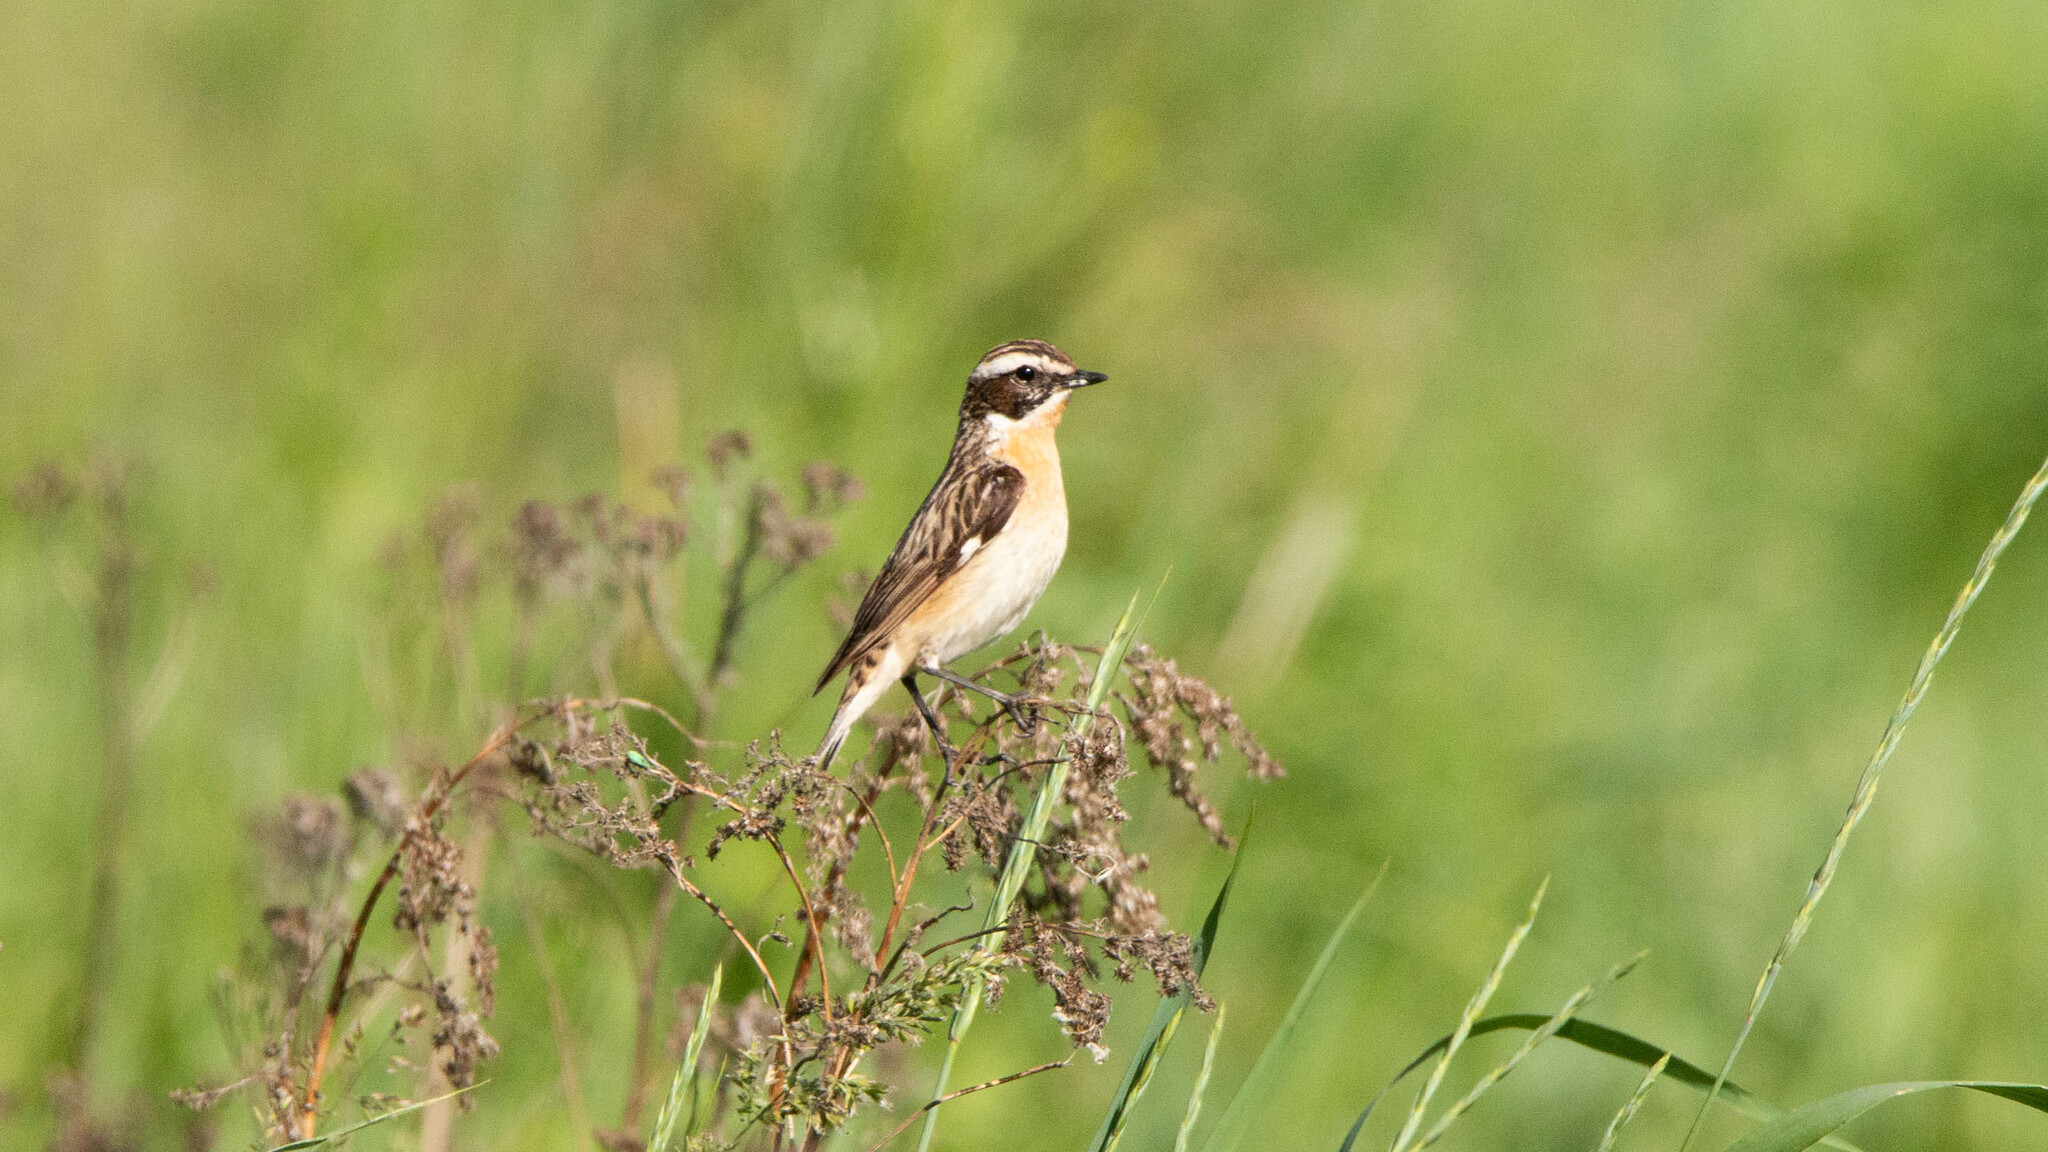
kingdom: Animalia
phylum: Chordata
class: Aves
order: Passeriformes
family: Muscicapidae
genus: Saxicola
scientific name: Saxicola rubetra
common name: Whinchat
